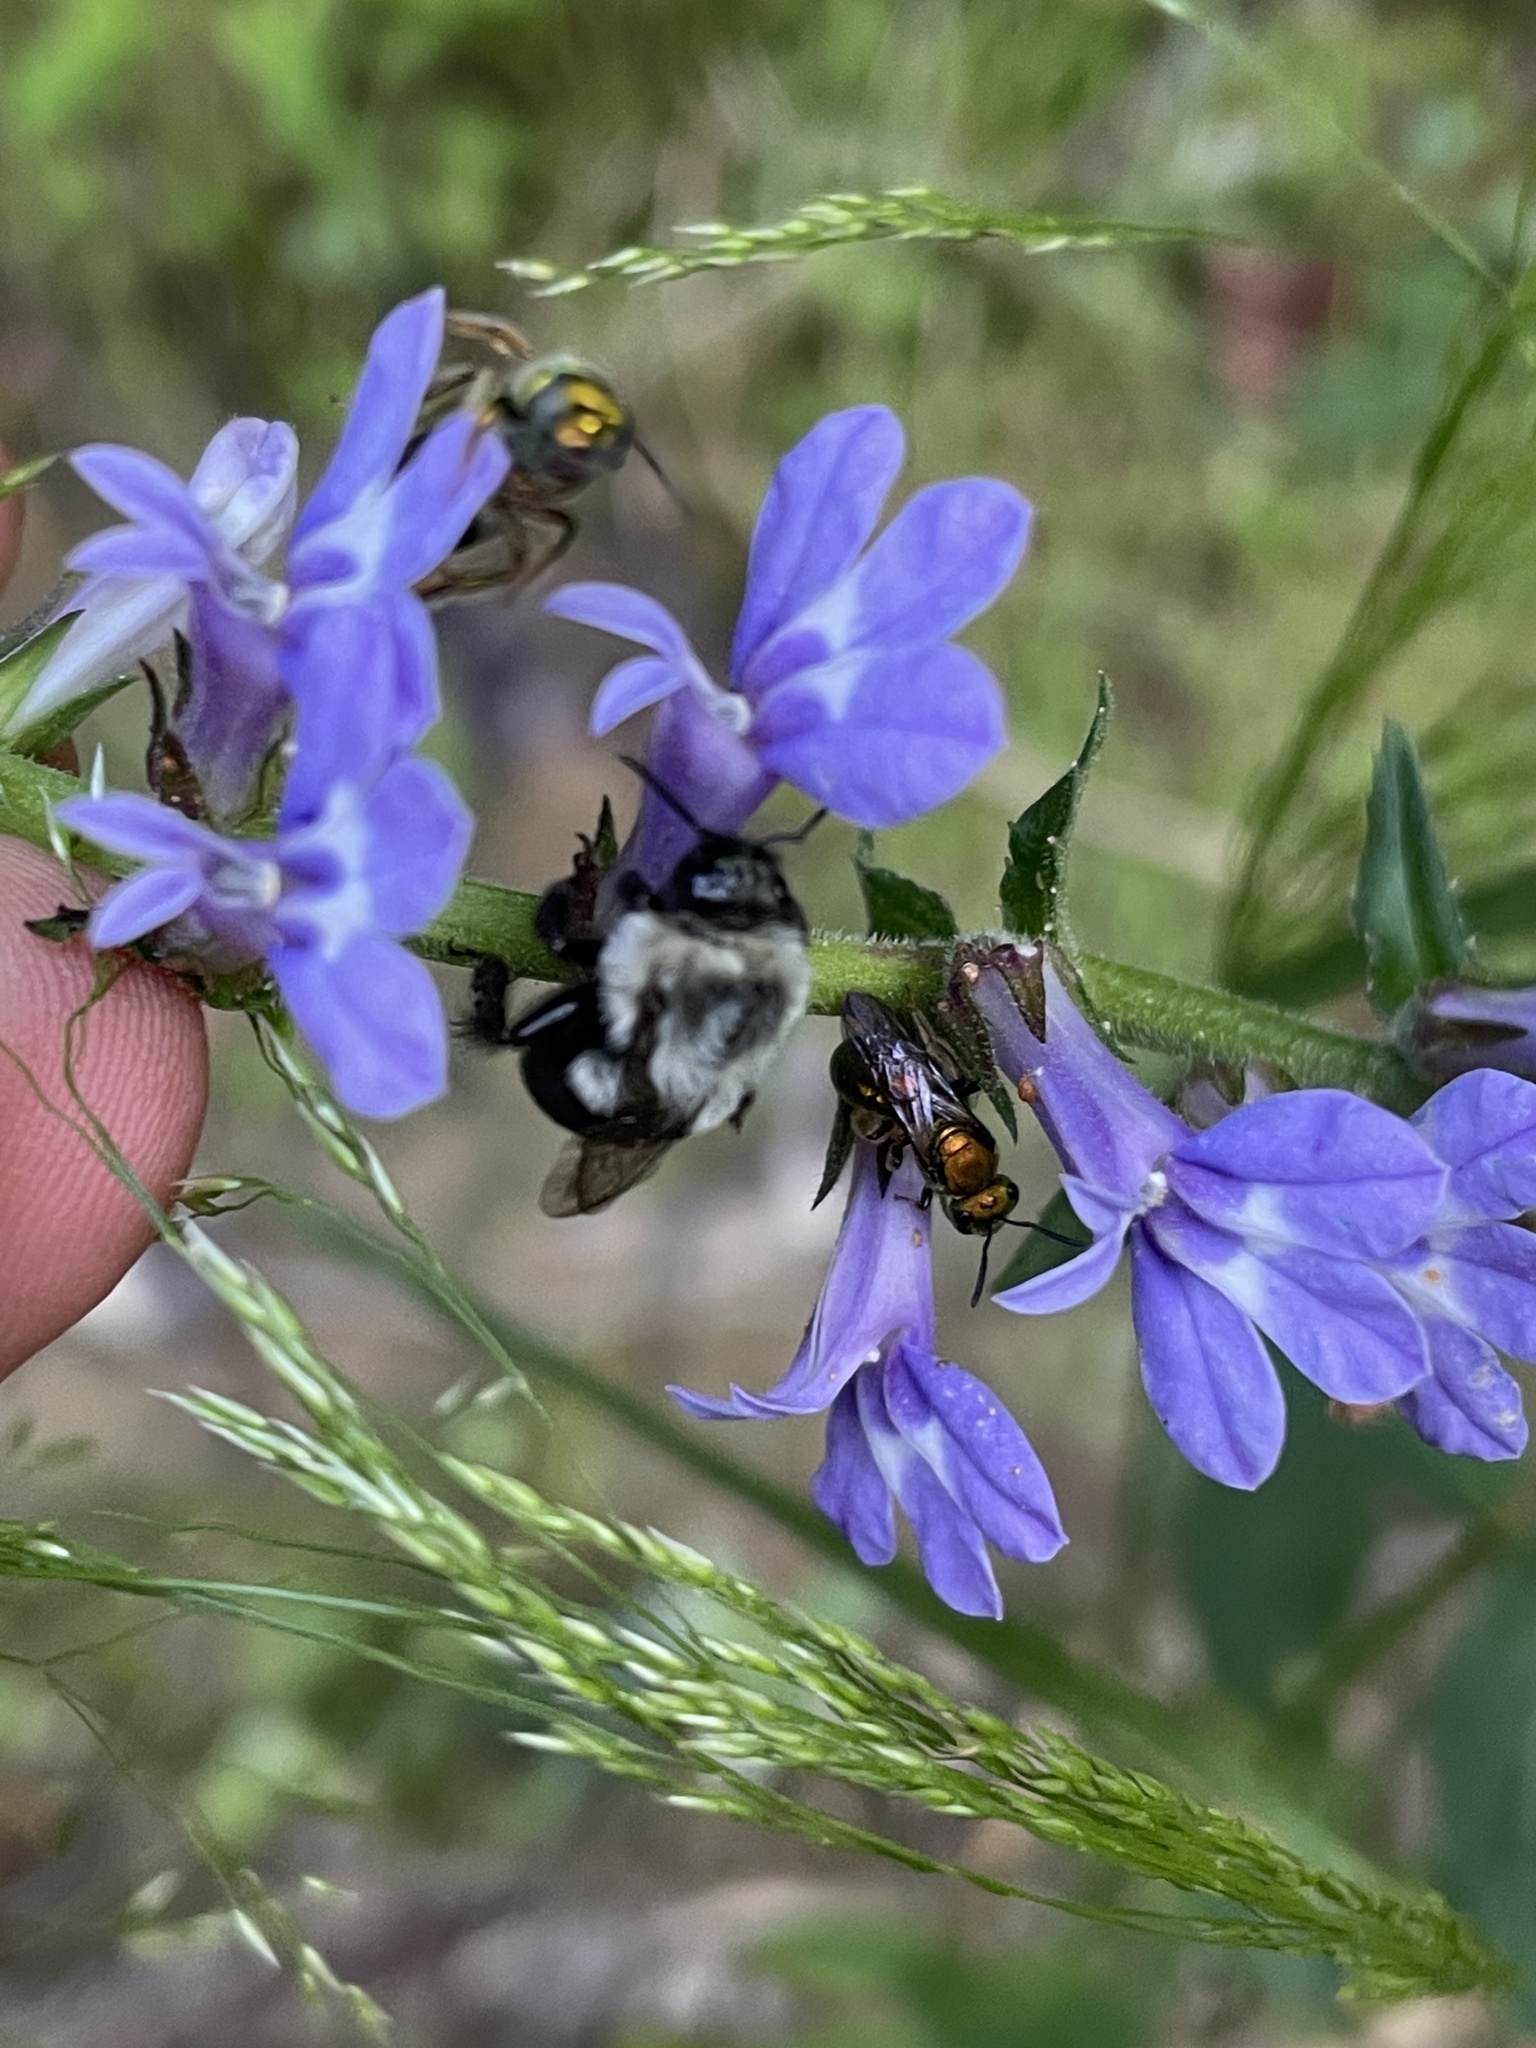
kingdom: Animalia
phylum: Arthropoda
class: Insecta
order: Hymenoptera
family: Apidae
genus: Bombus
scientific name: Bombus impatiens
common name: Common eastern bumble bee
